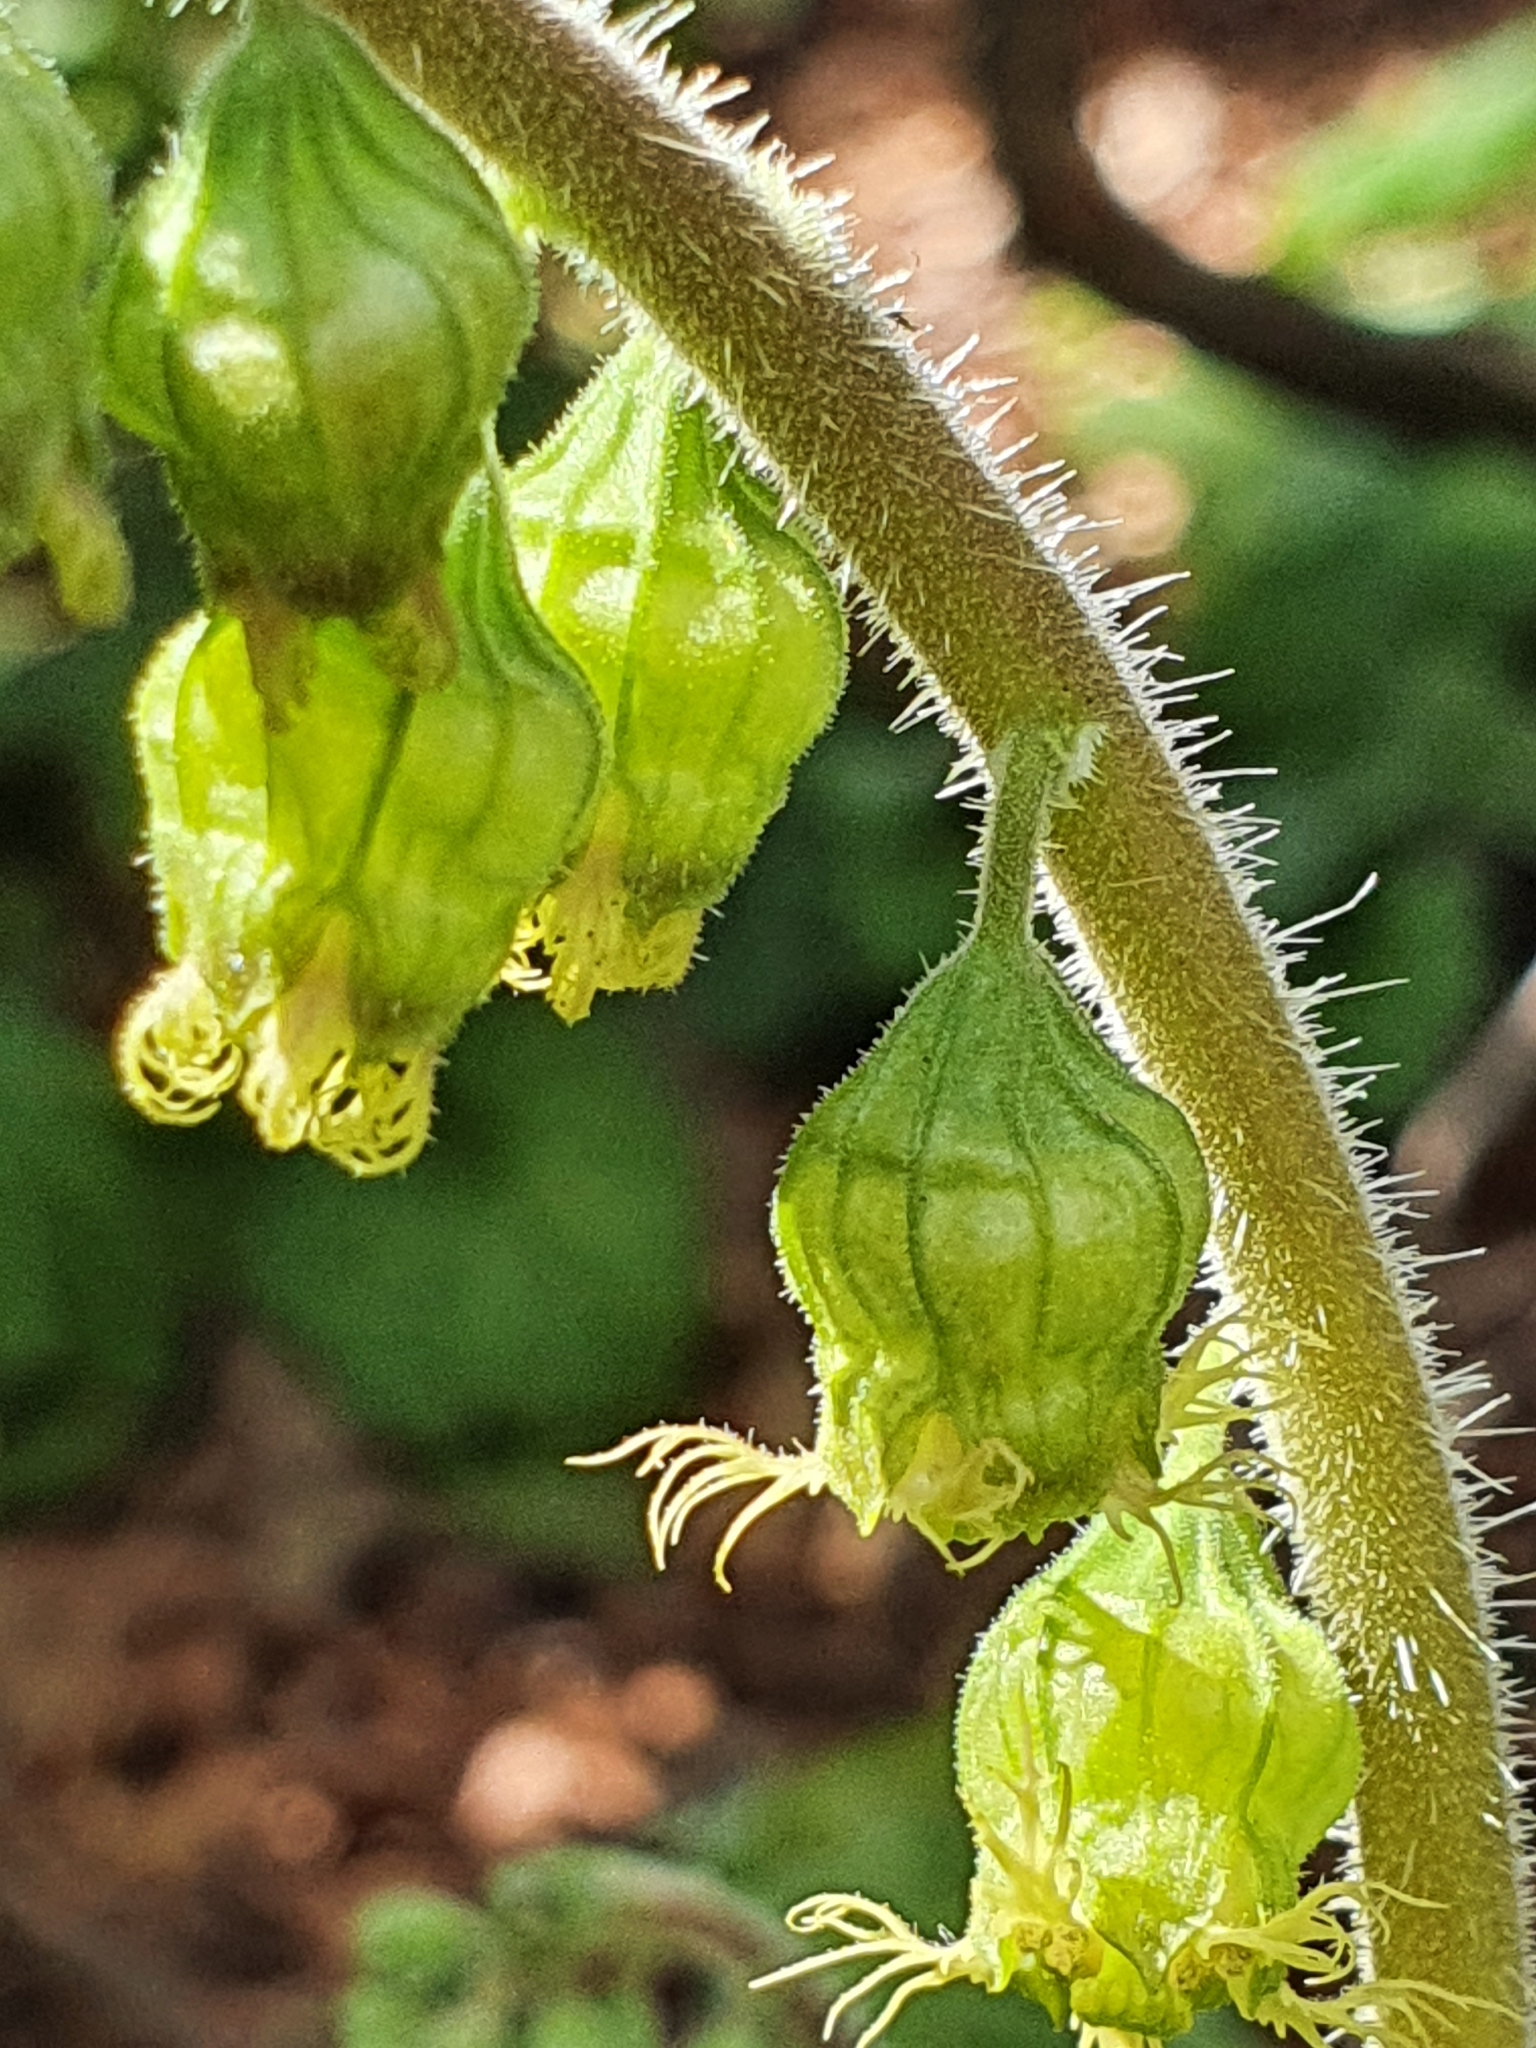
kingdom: Plantae
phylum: Tracheophyta
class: Magnoliopsida
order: Saxifragales
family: Saxifragaceae
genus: Tellima
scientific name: Tellima grandiflora
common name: Fringecups
